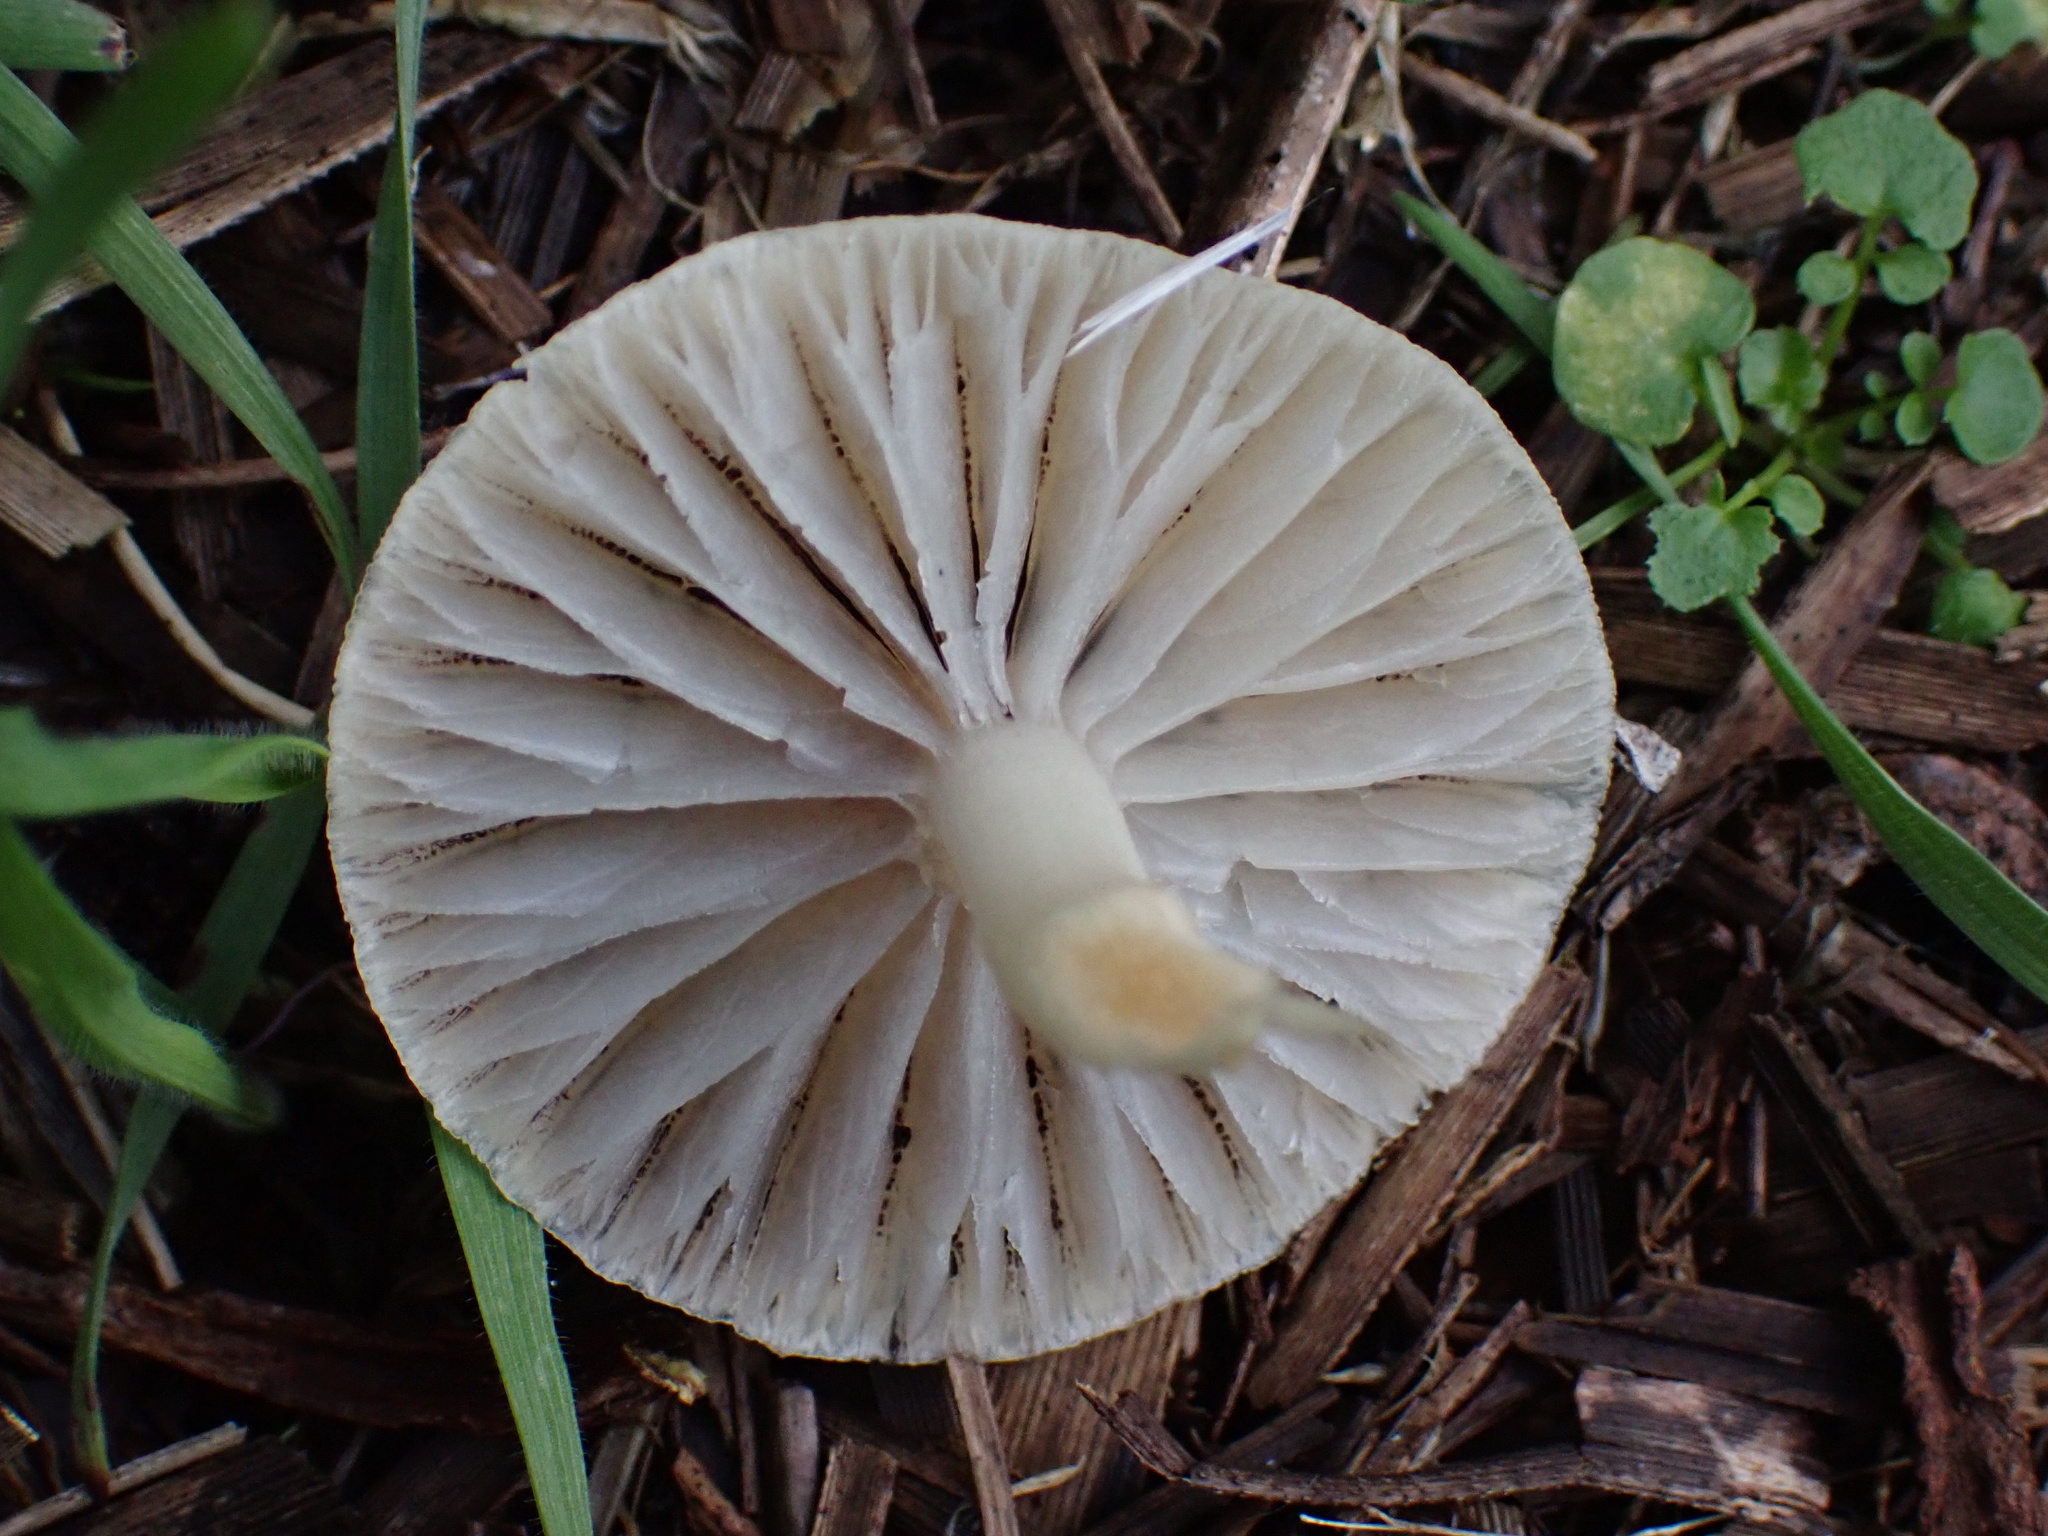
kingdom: Fungi
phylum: Basidiomycota
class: Agaricomycetes
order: Agaricales
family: Strophariaceae
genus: Leratiomyces
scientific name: Leratiomyces percevalii
